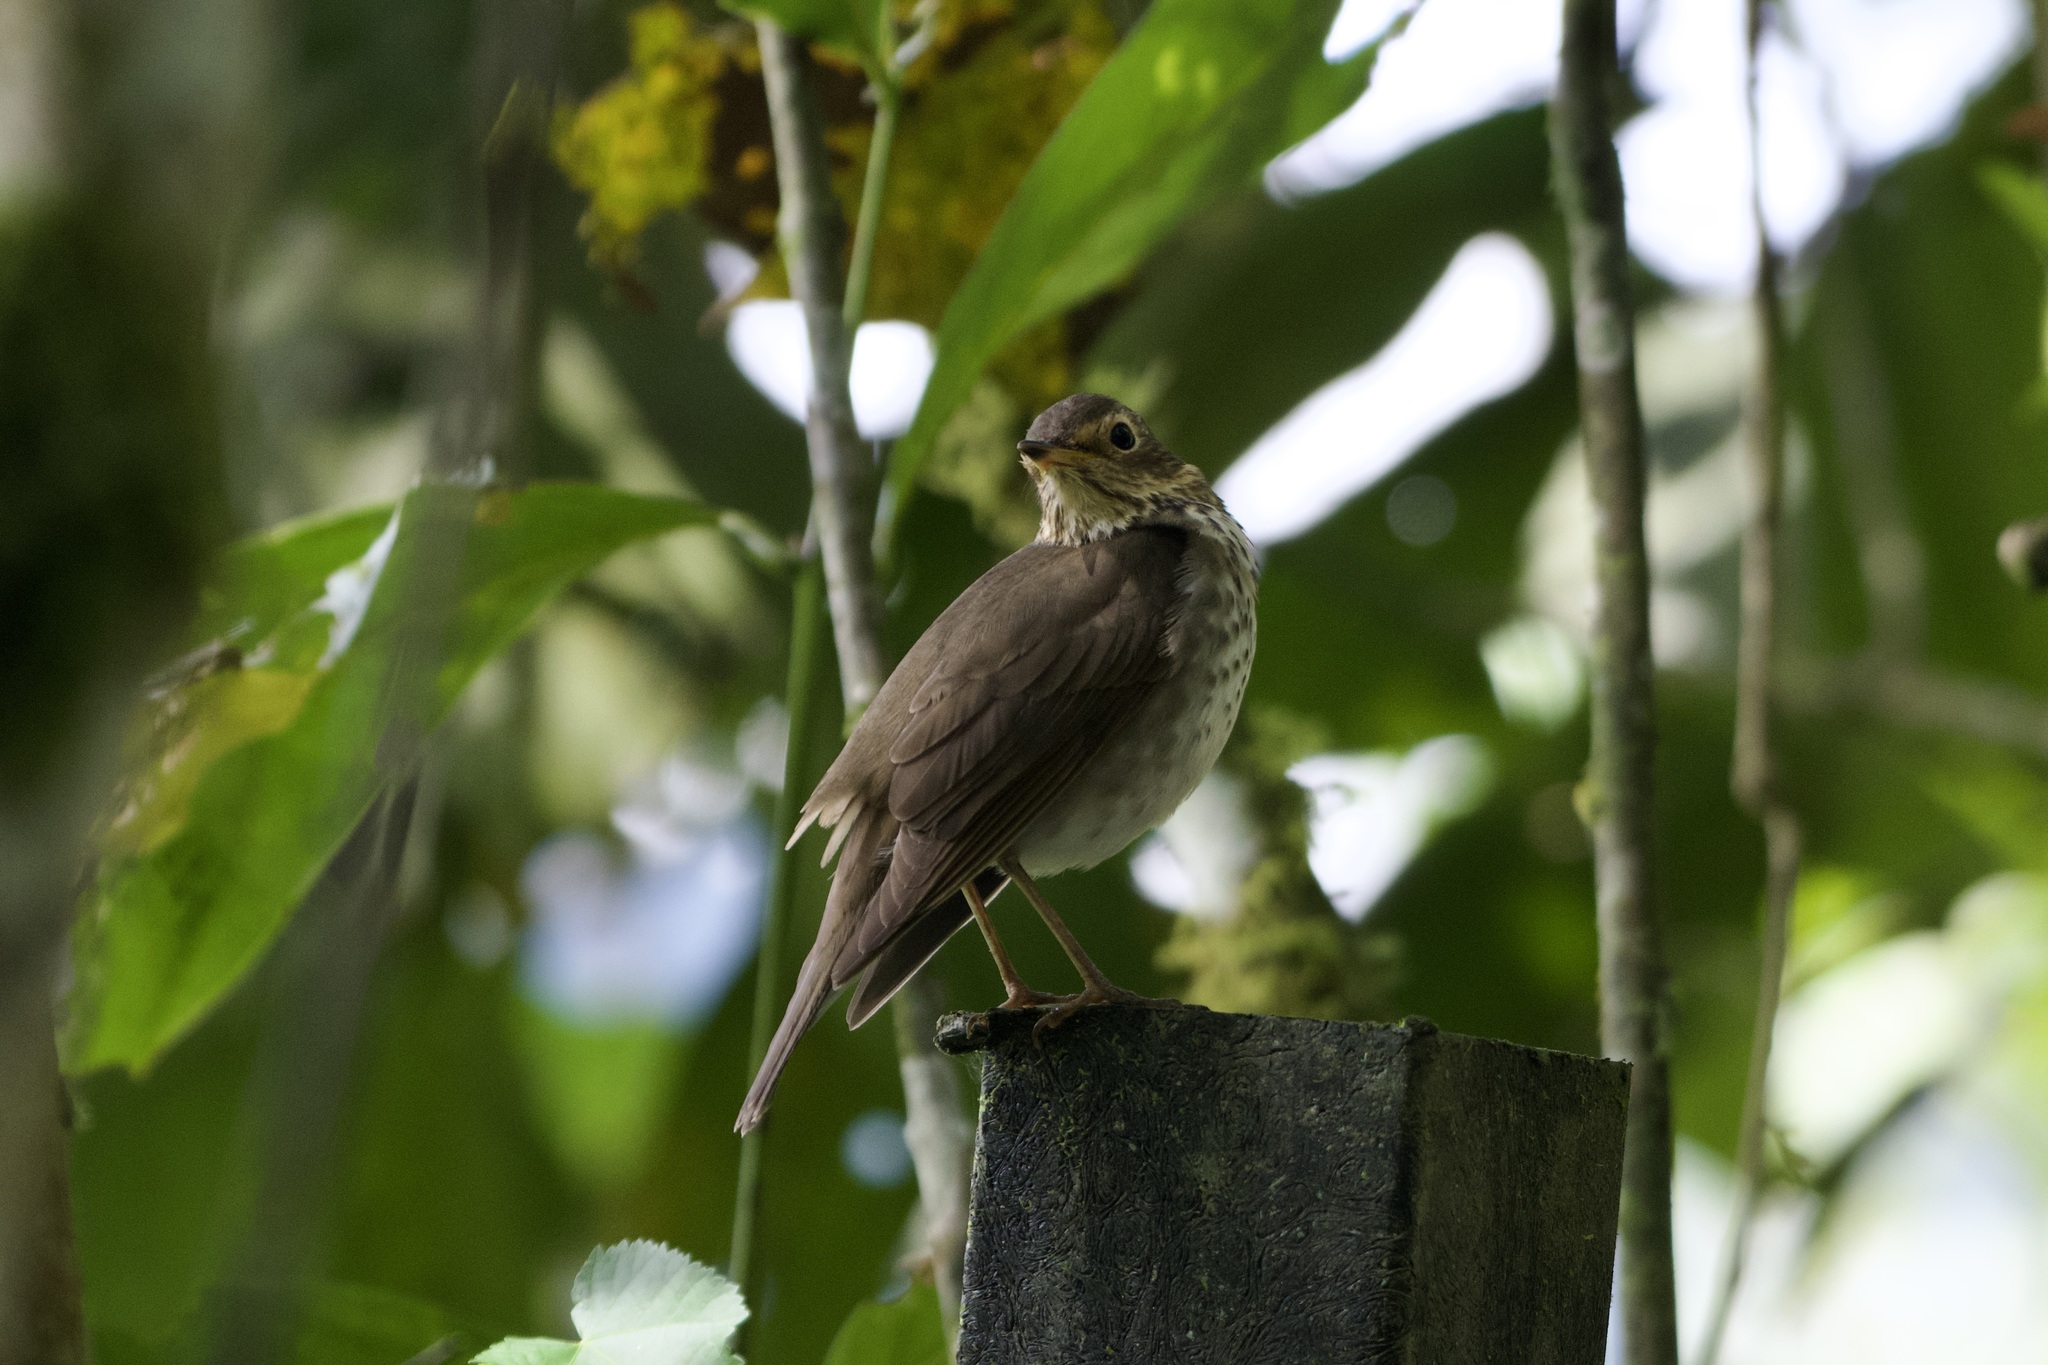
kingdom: Animalia
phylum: Chordata
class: Aves
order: Passeriformes
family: Turdidae
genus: Catharus
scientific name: Catharus ustulatus
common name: Swainson's thrush
